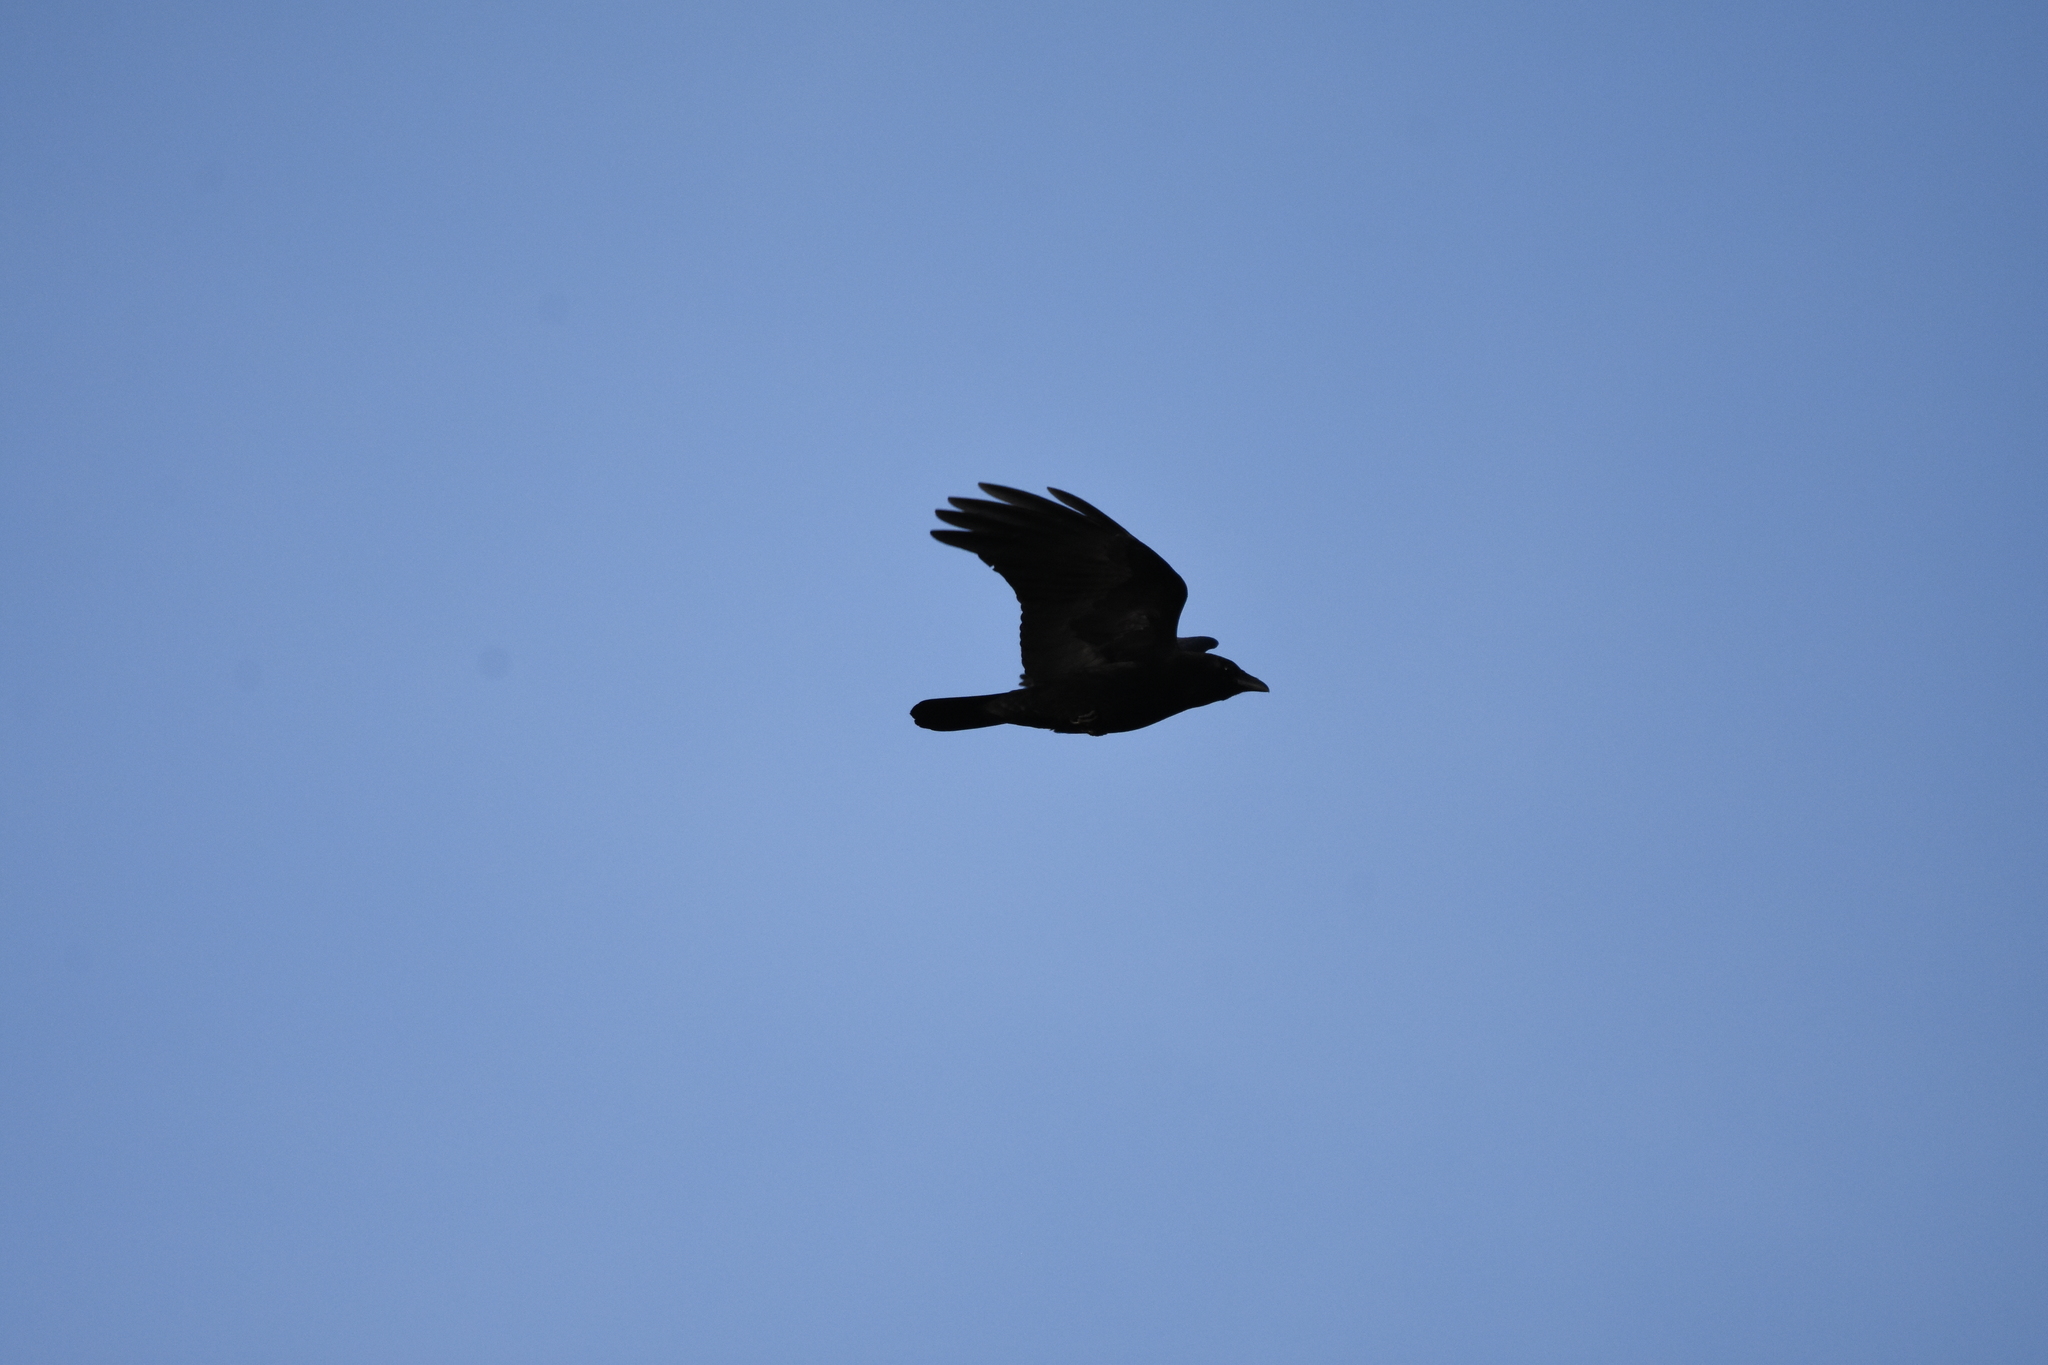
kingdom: Animalia
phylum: Chordata
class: Aves
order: Passeriformes
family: Corvidae
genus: Corvus
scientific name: Corvus corone
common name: Carrion crow
